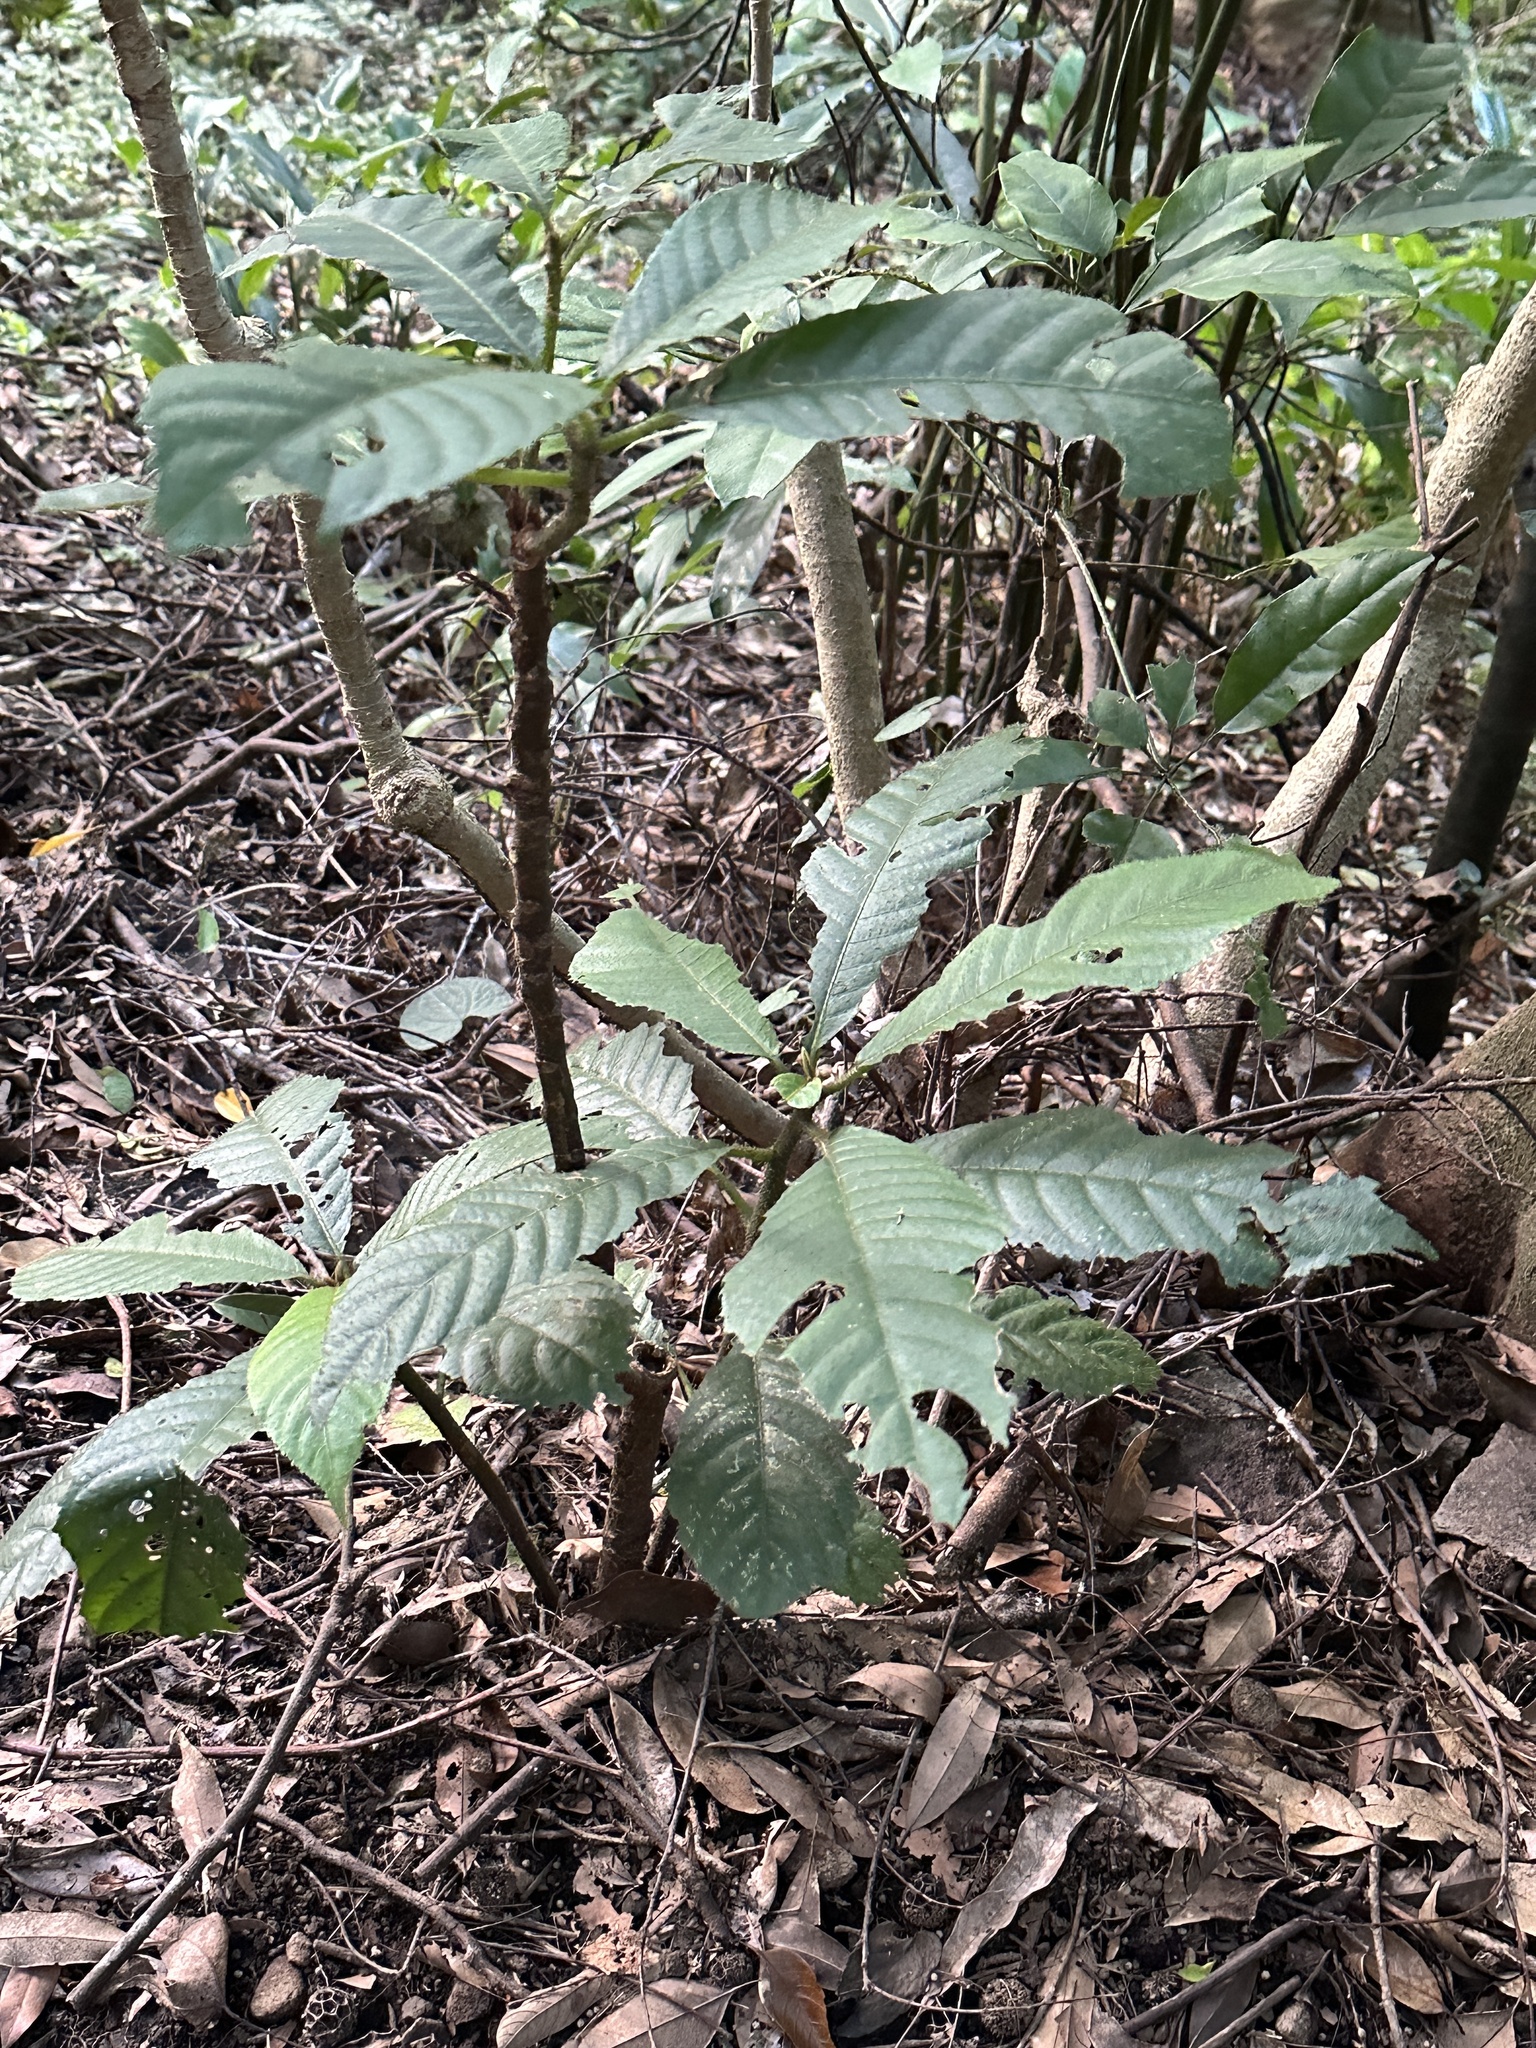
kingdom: Plantae
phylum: Tracheophyta
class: Magnoliopsida
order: Ericales
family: Actinidiaceae
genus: Saurauia
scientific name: Saurauia tristyla
